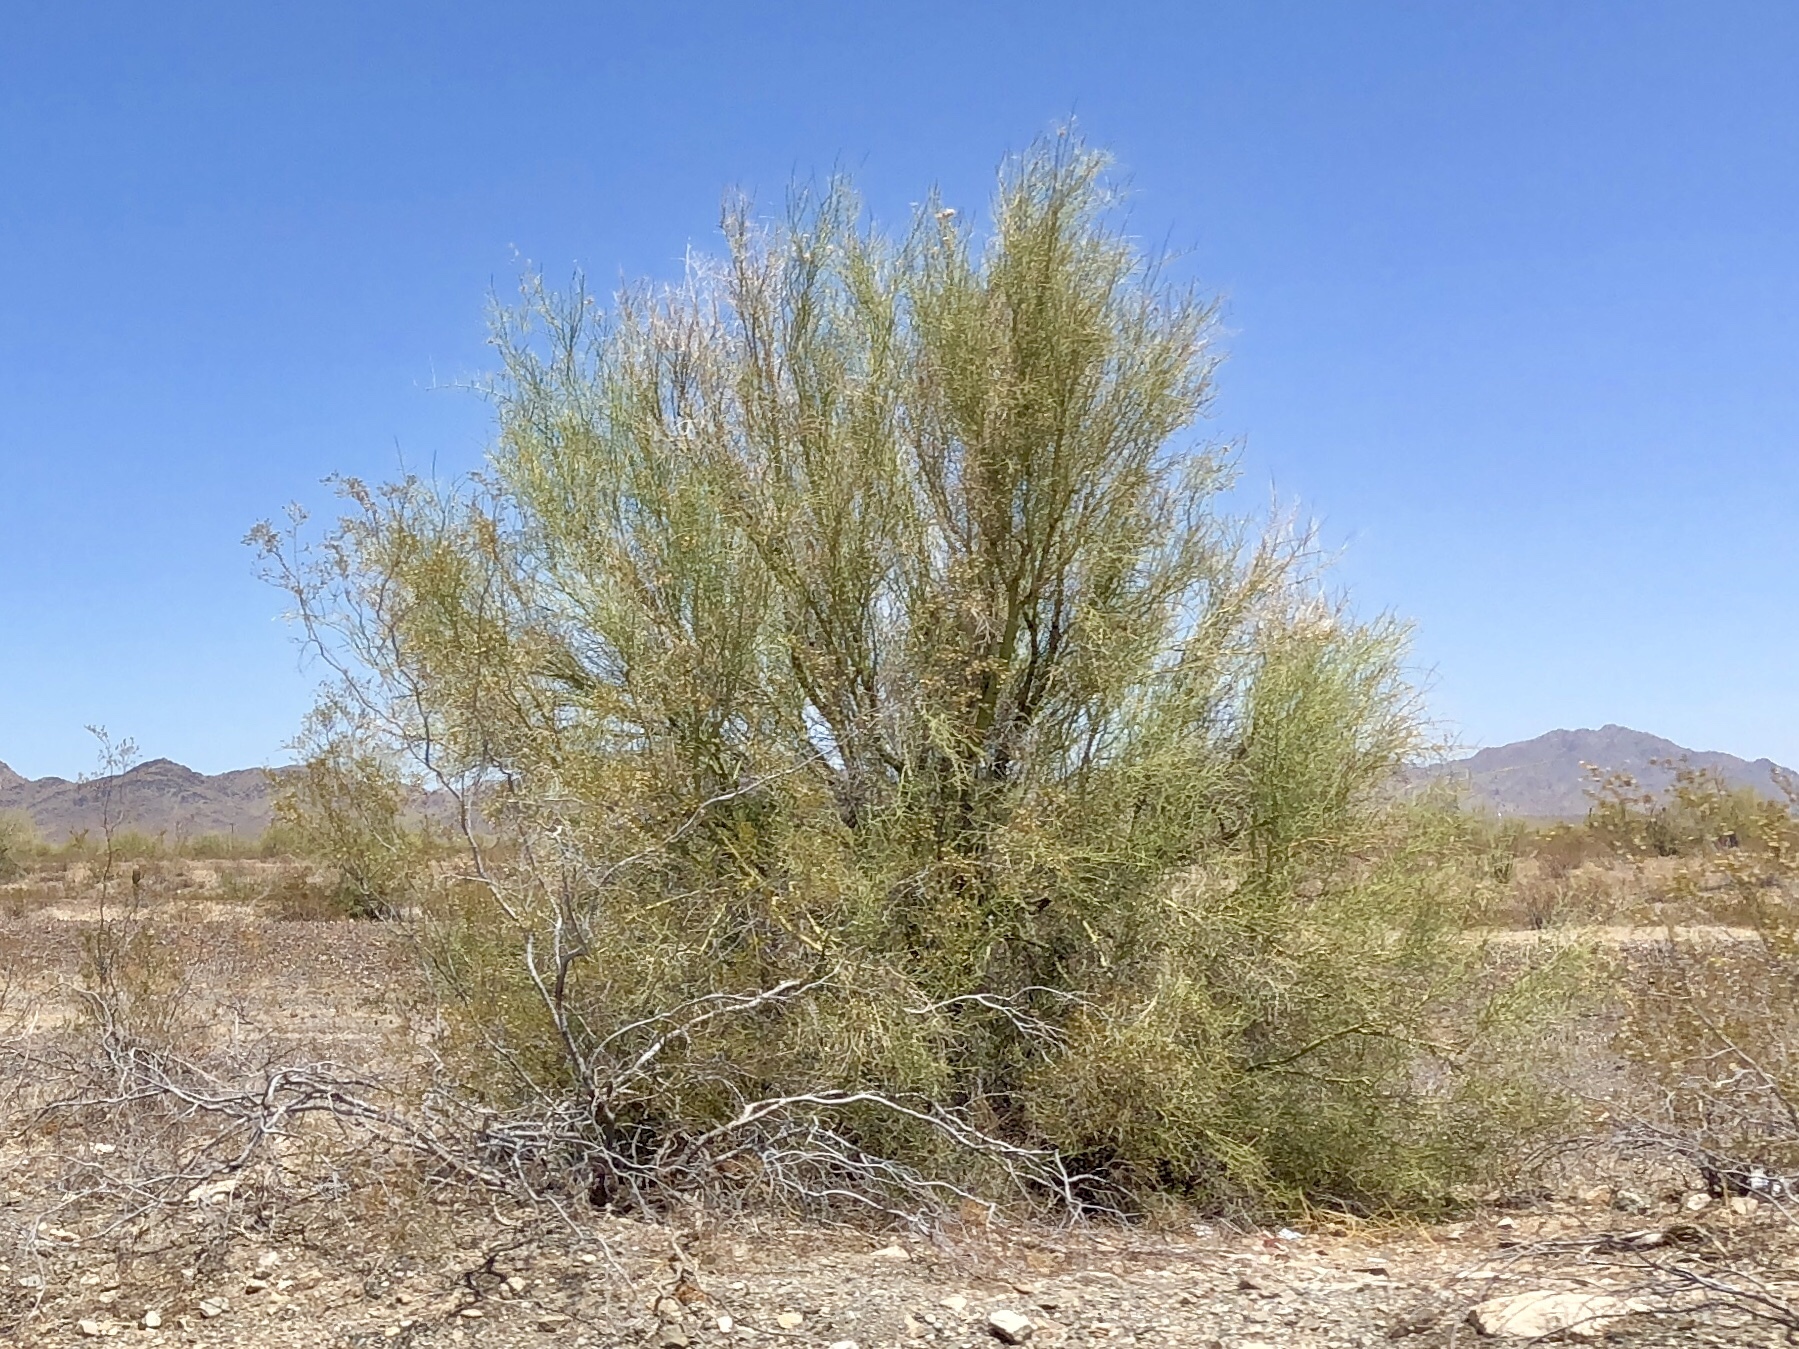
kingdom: Plantae
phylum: Tracheophyta
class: Magnoliopsida
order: Fabales
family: Fabaceae
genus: Parkinsonia
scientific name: Parkinsonia microphylla
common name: Yellow paloverde
